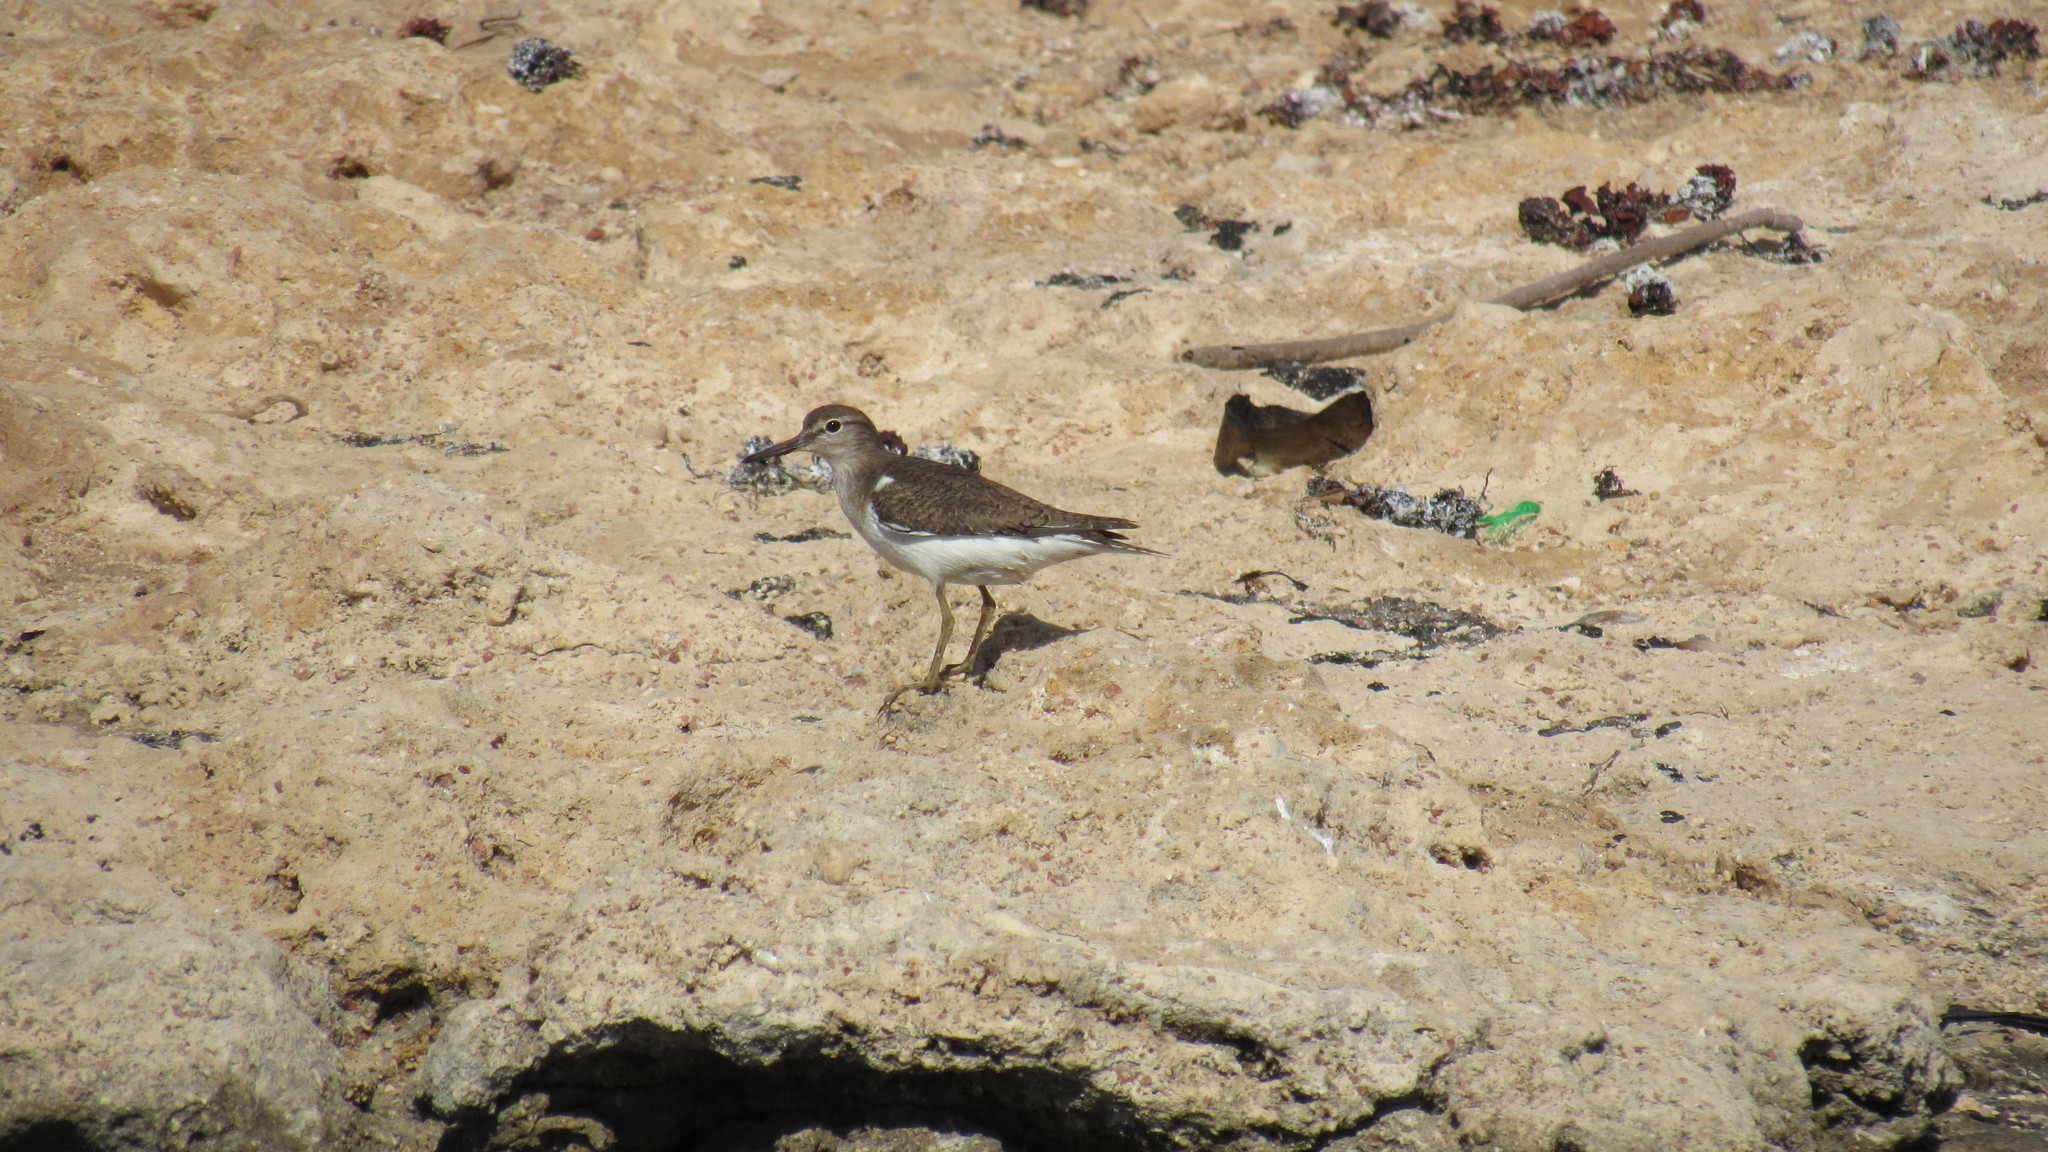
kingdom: Animalia
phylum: Chordata
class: Aves
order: Charadriiformes
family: Scolopacidae
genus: Actitis
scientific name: Actitis hypoleucos
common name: Common sandpiper
